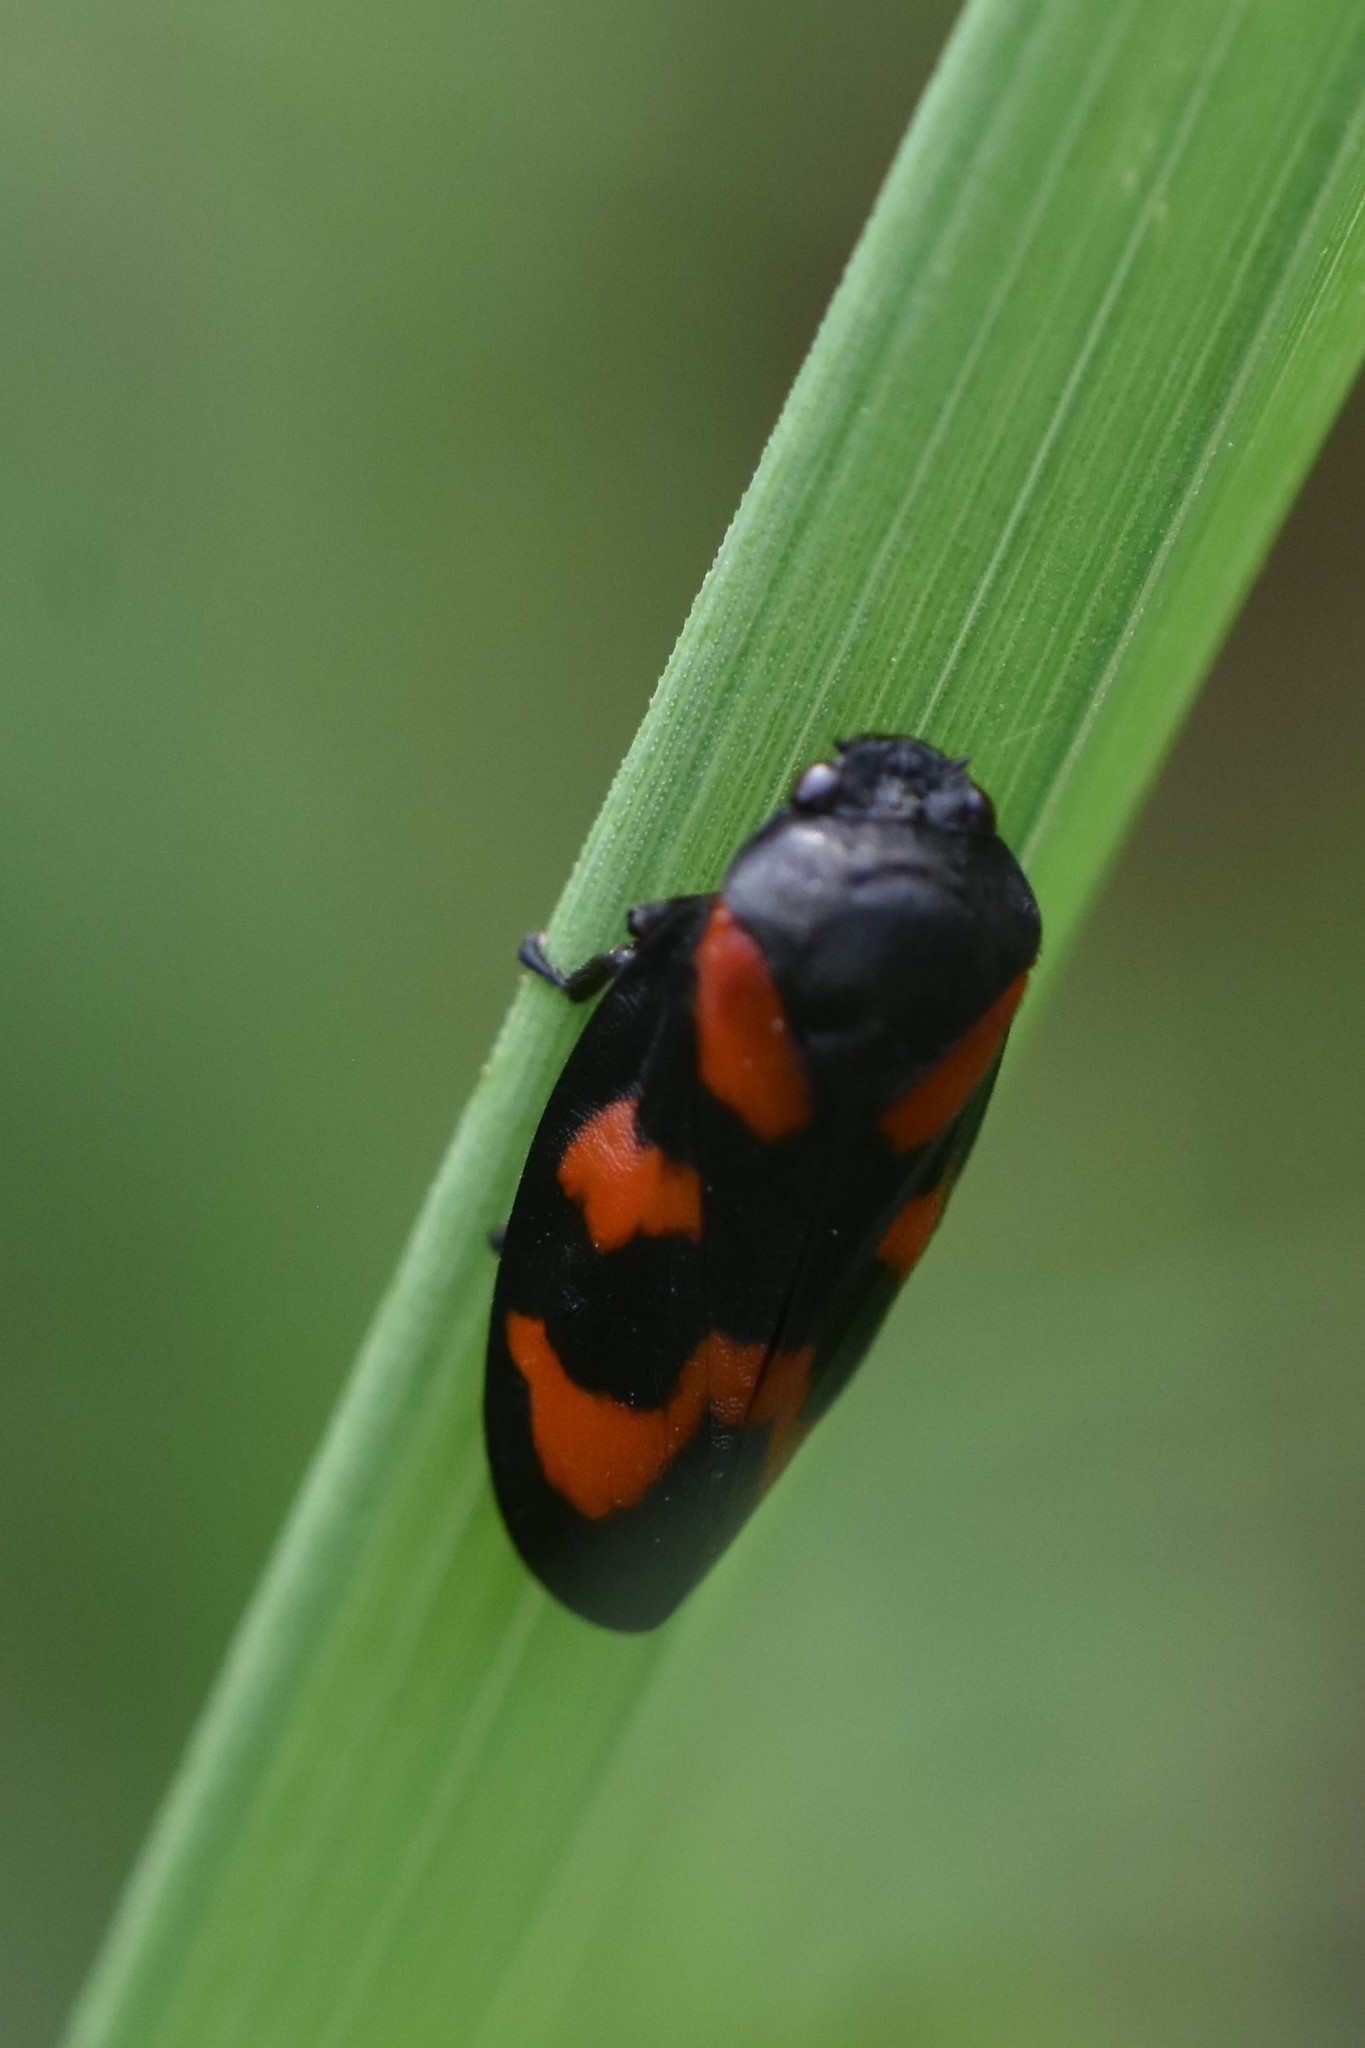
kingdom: Animalia
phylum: Arthropoda
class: Insecta
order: Hemiptera
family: Cercopidae
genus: Cercopis
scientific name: Cercopis vulnerata
